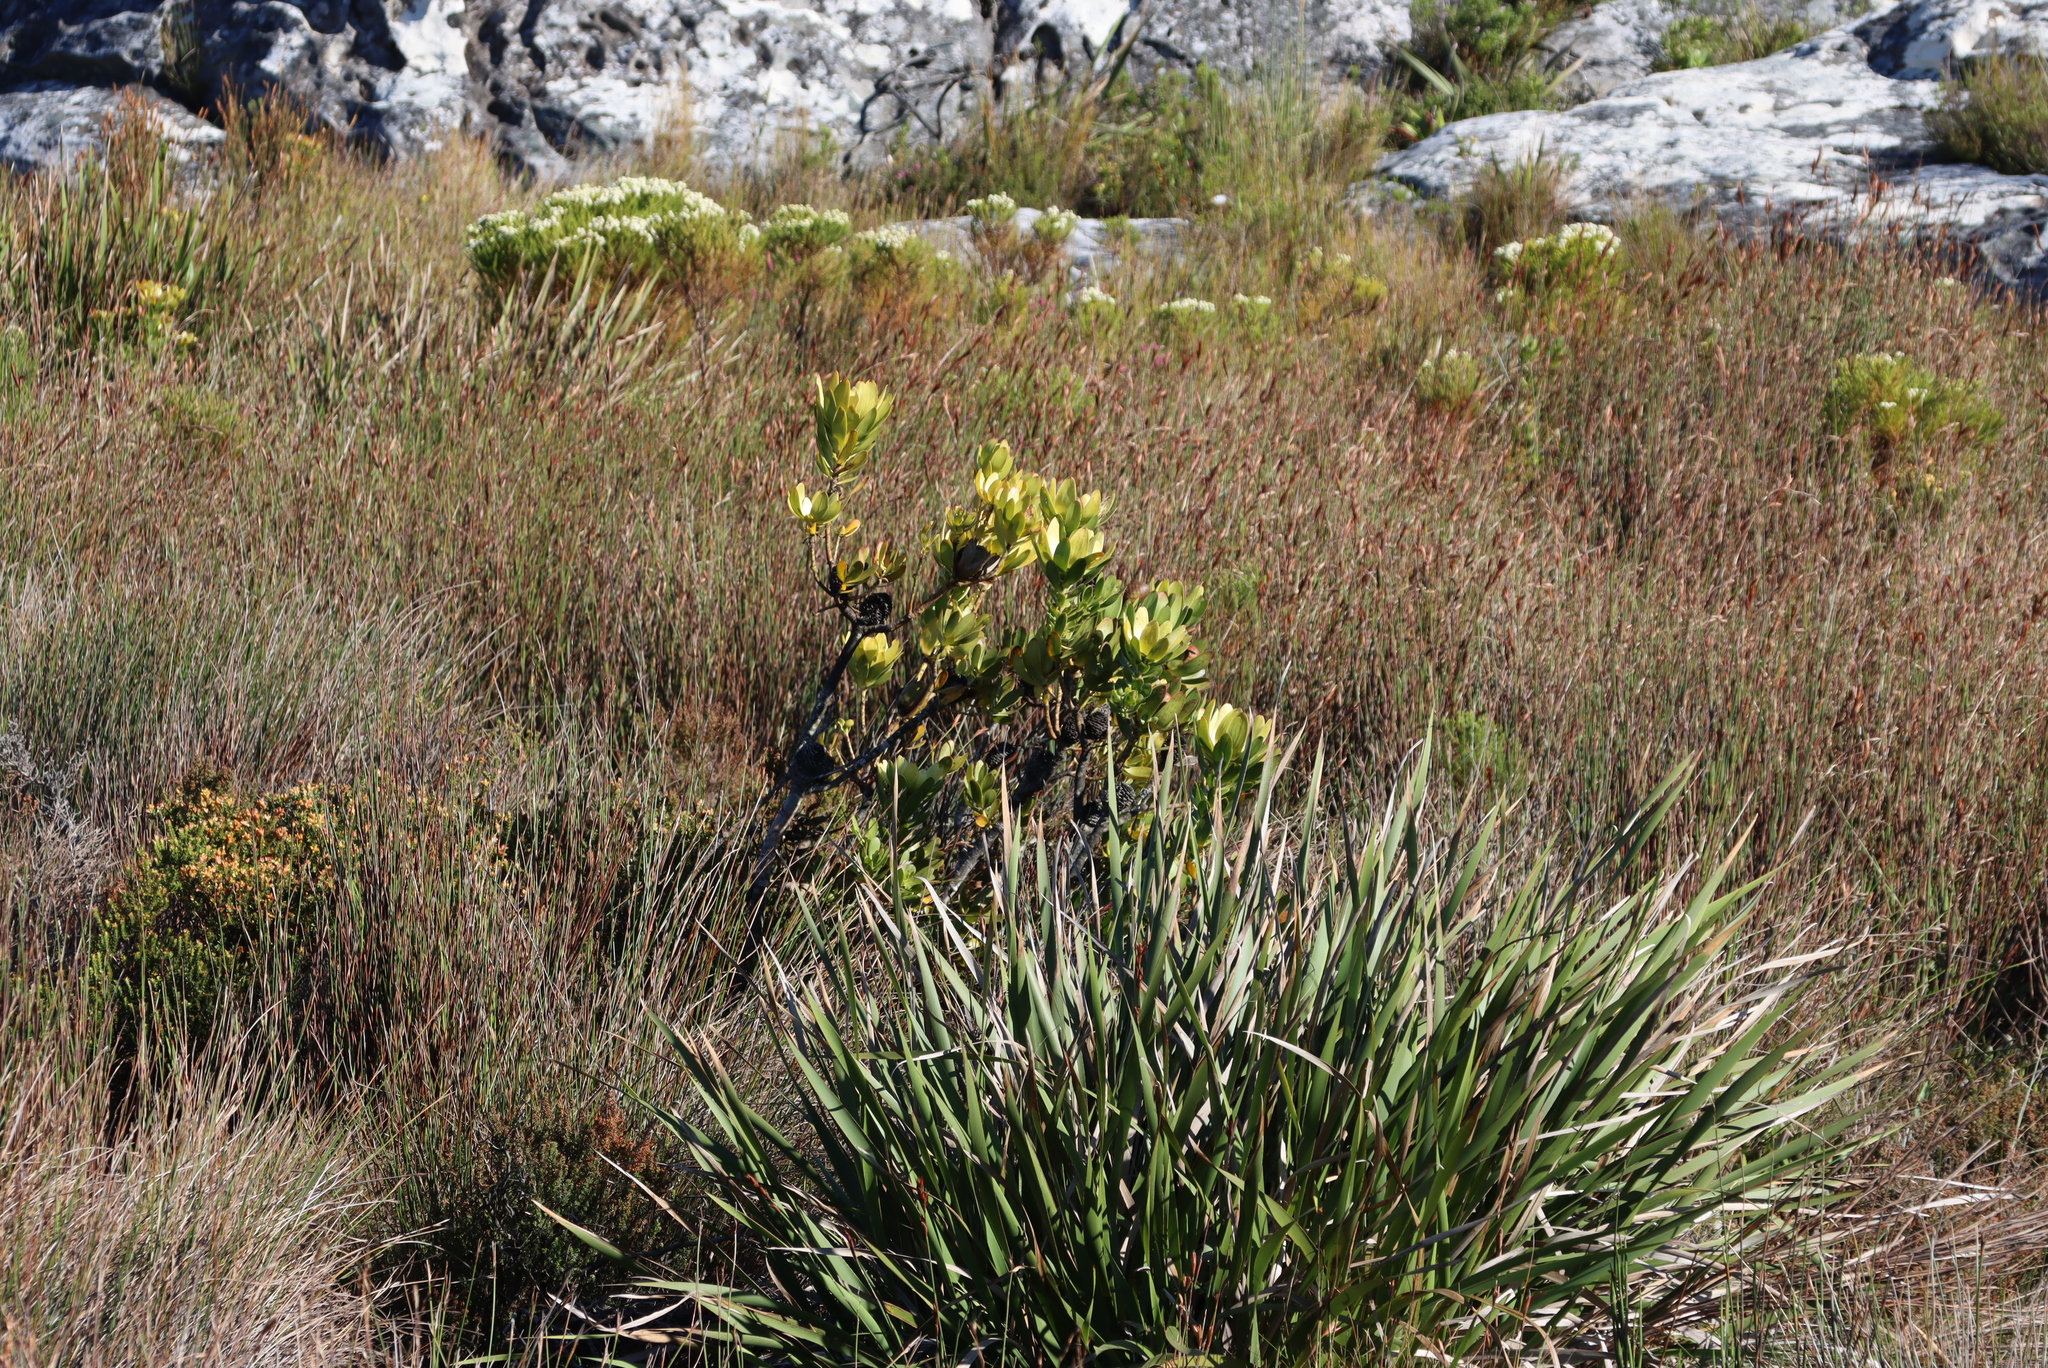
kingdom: Plantae
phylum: Tracheophyta
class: Magnoliopsida
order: Proteales
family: Proteaceae
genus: Leucadendron
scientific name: Leucadendron strobilinum
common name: Mountain rose
